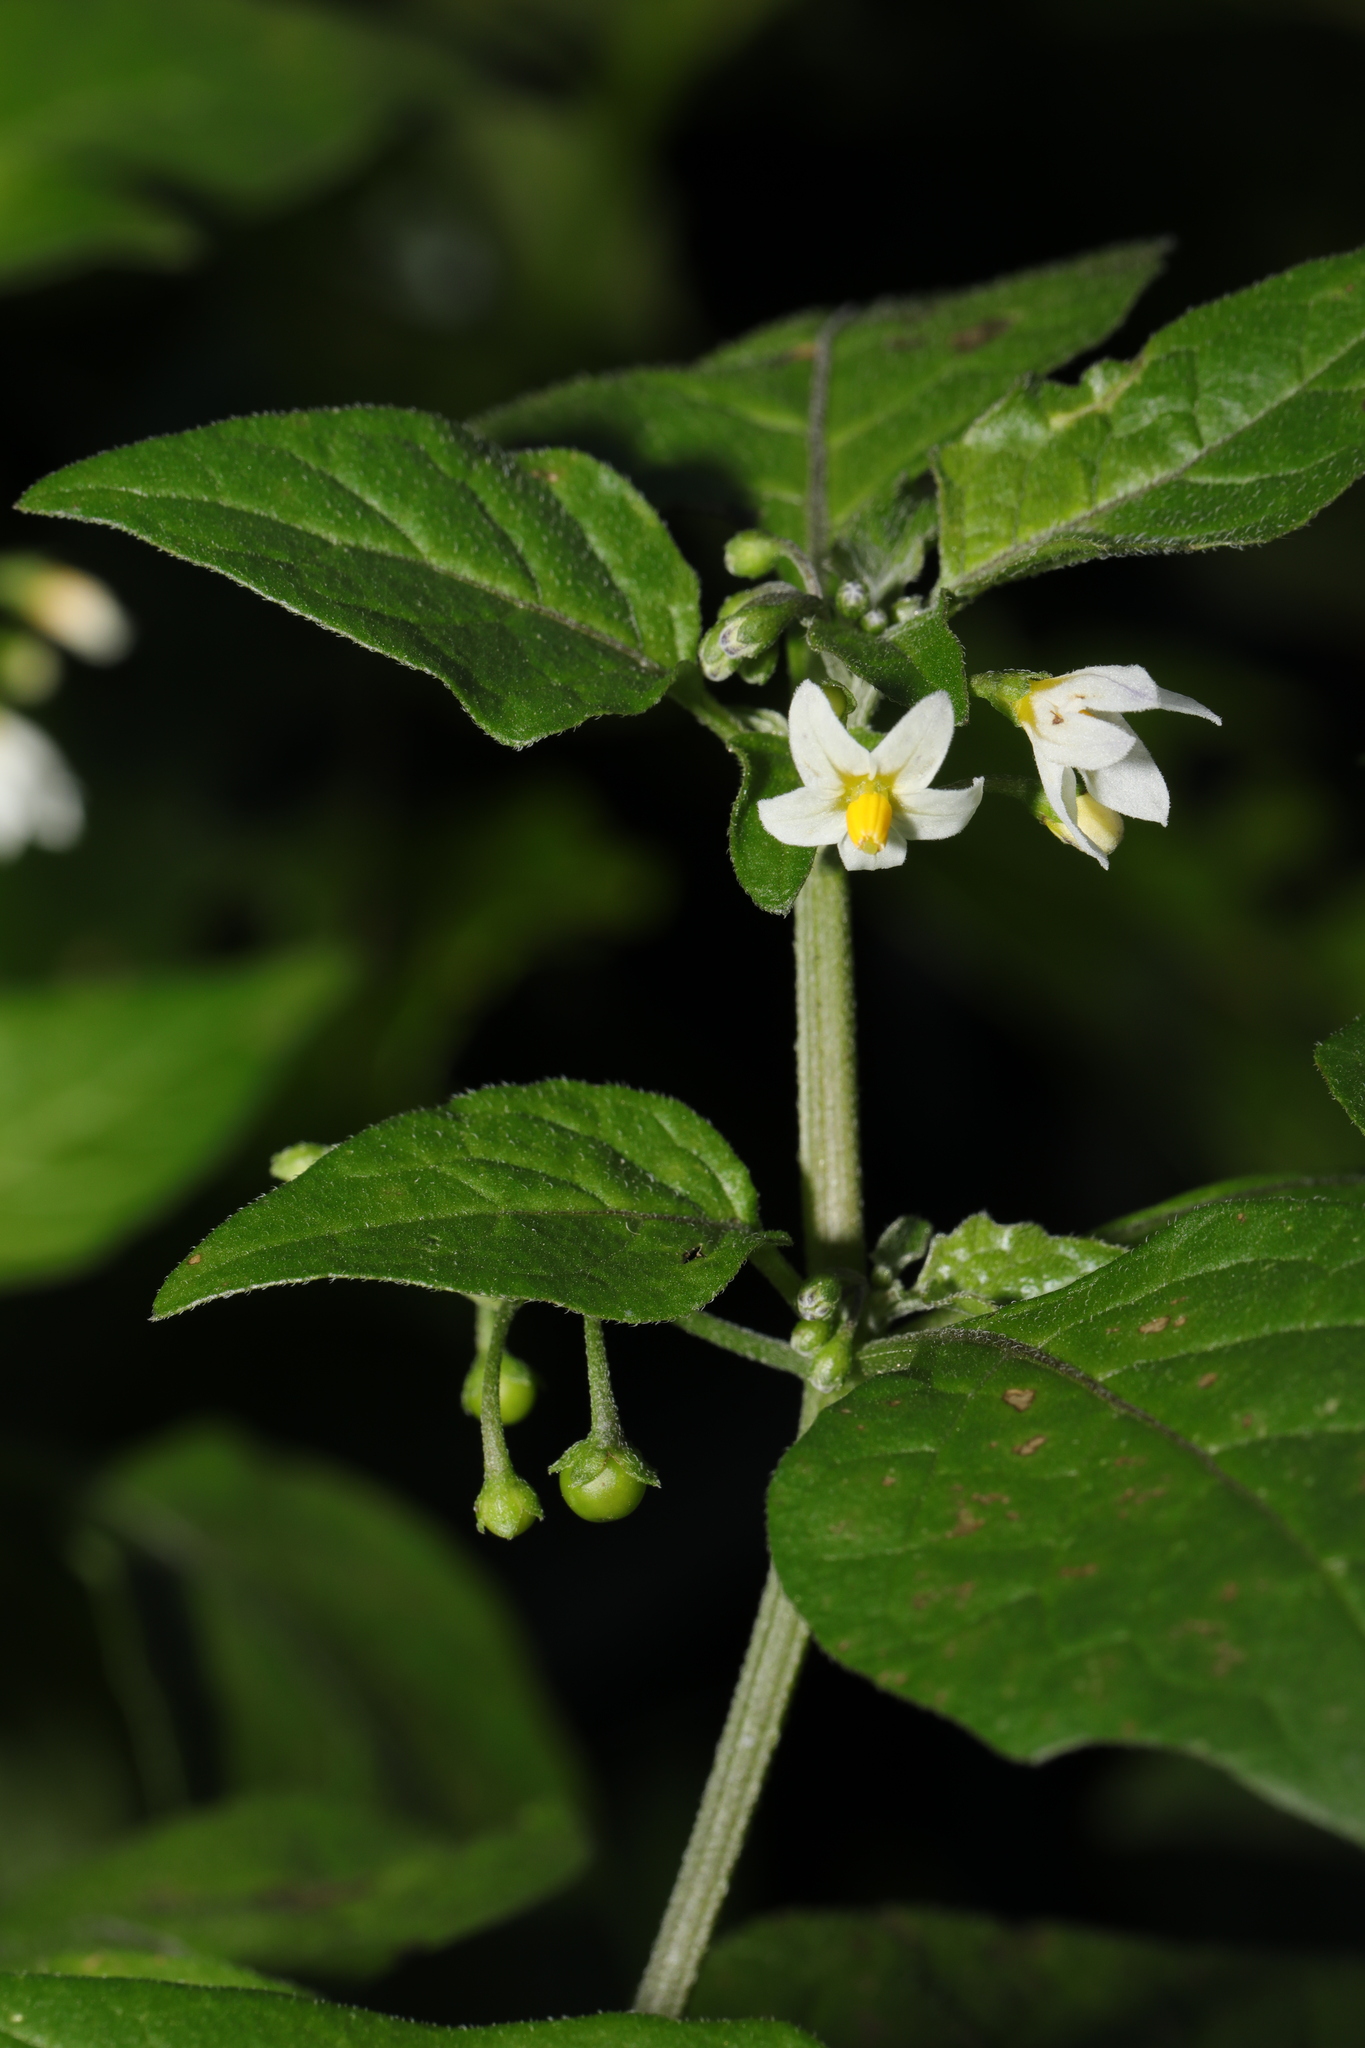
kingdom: Plantae
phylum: Tracheophyta
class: Magnoliopsida
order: Solanales
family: Solanaceae
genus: Solanum
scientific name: Solanum nigrum
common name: Black nightshade
